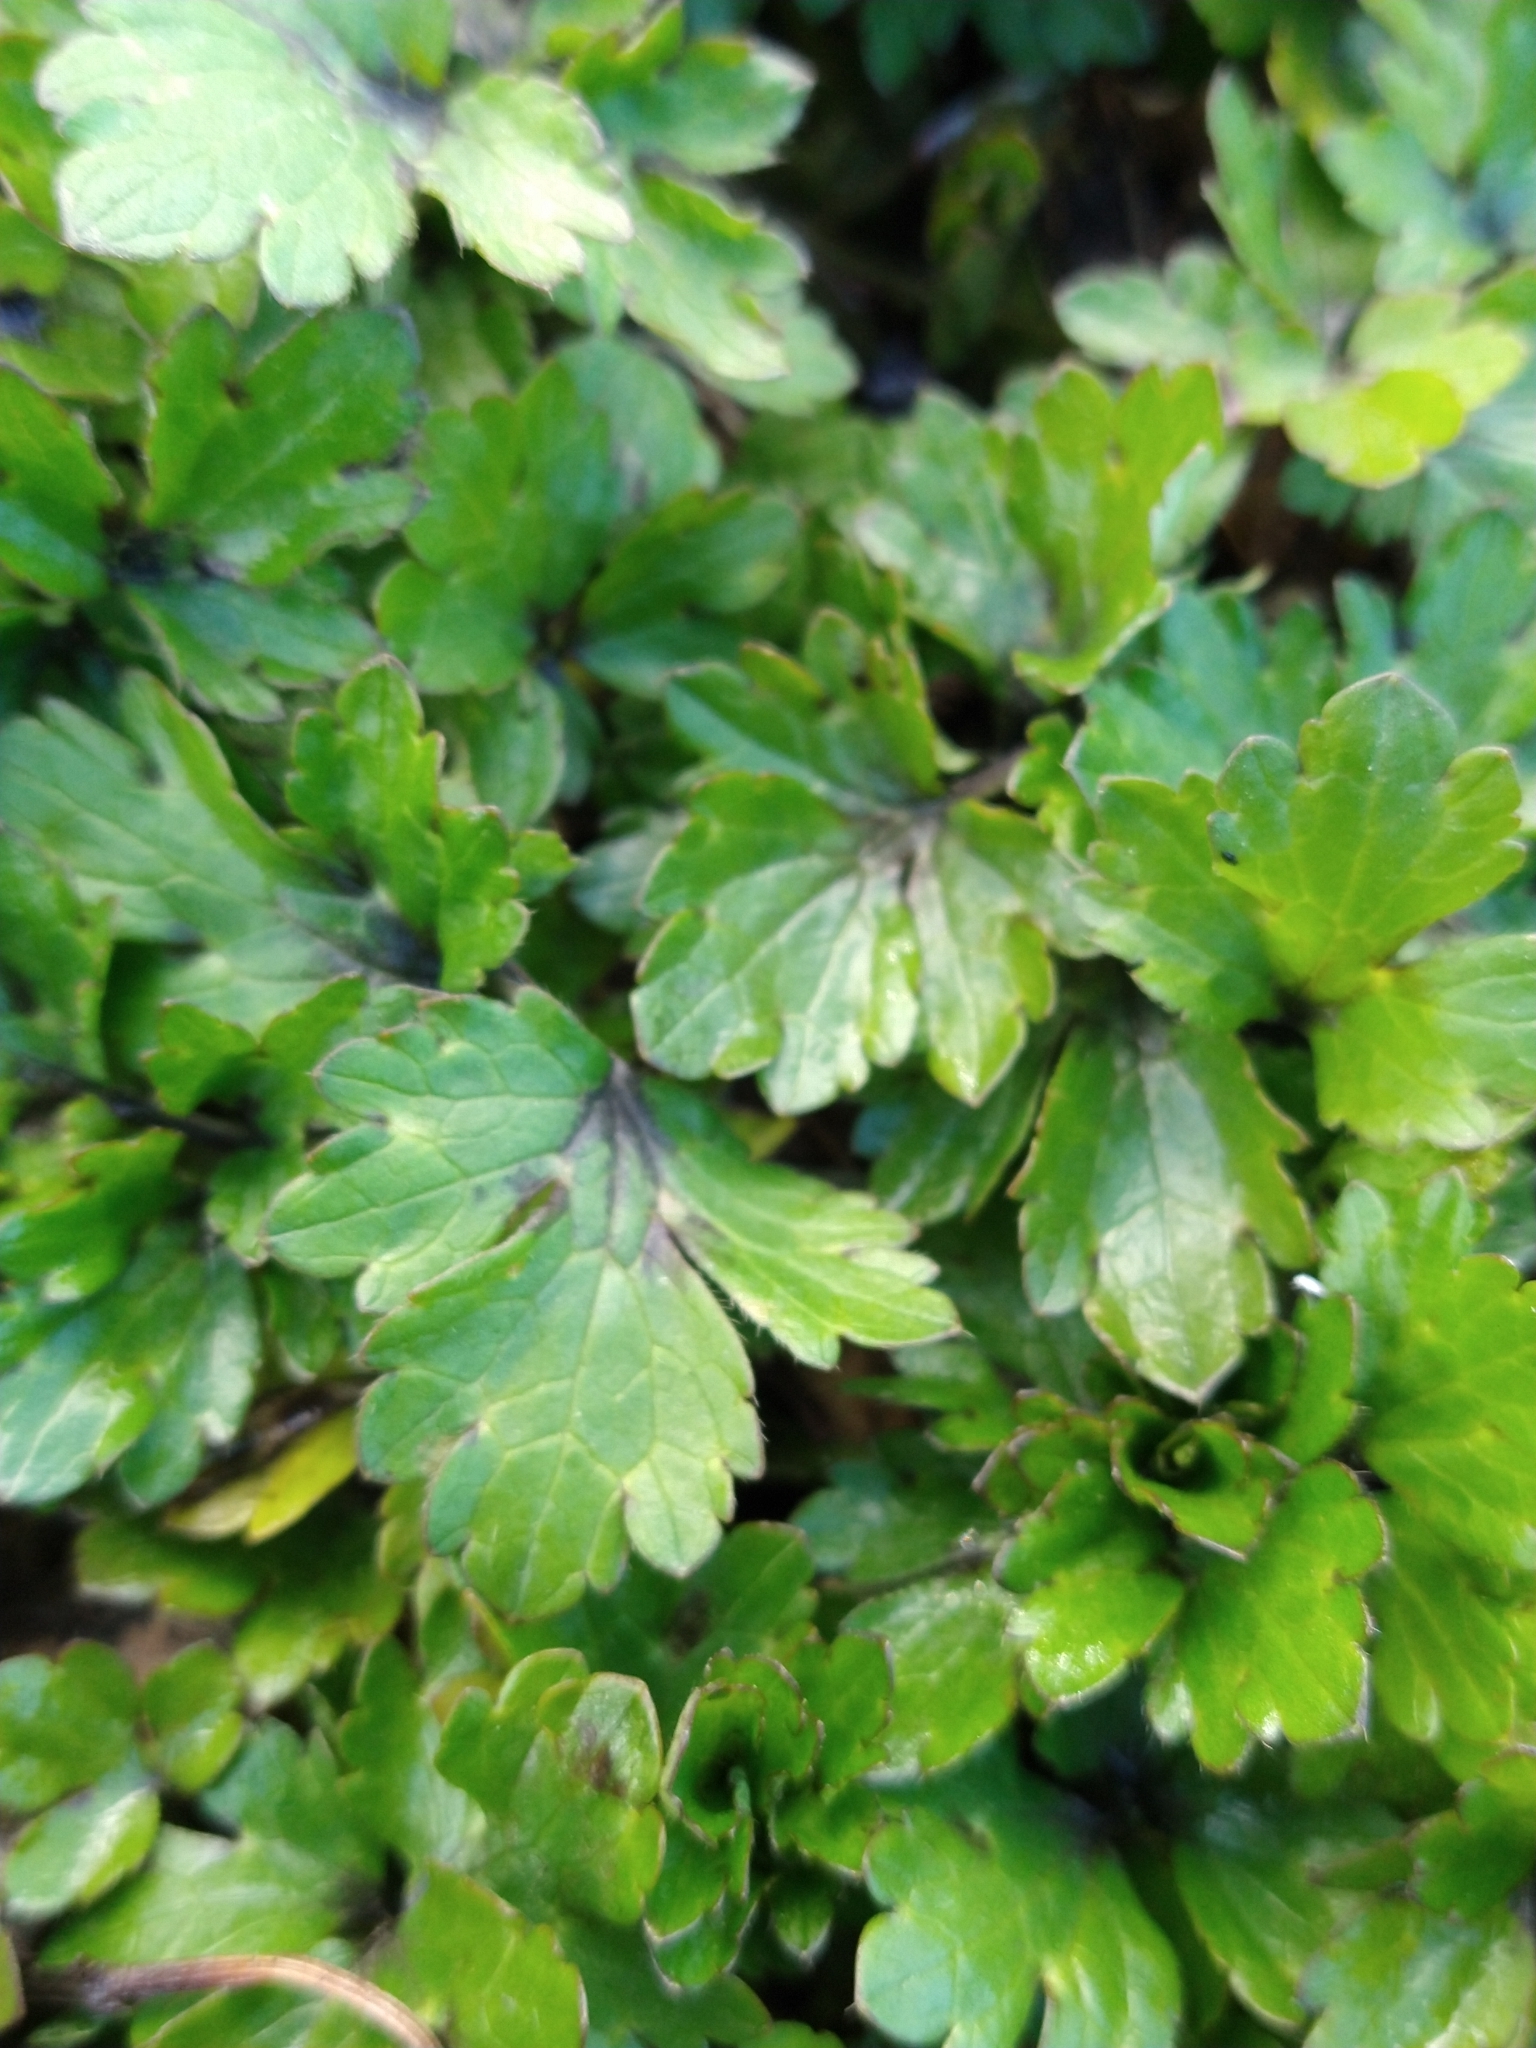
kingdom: Plantae
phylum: Tracheophyta
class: Magnoliopsida
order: Ranunculales
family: Ranunculaceae
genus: Ranunculus
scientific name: Ranunculus repens
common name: Creeping buttercup
